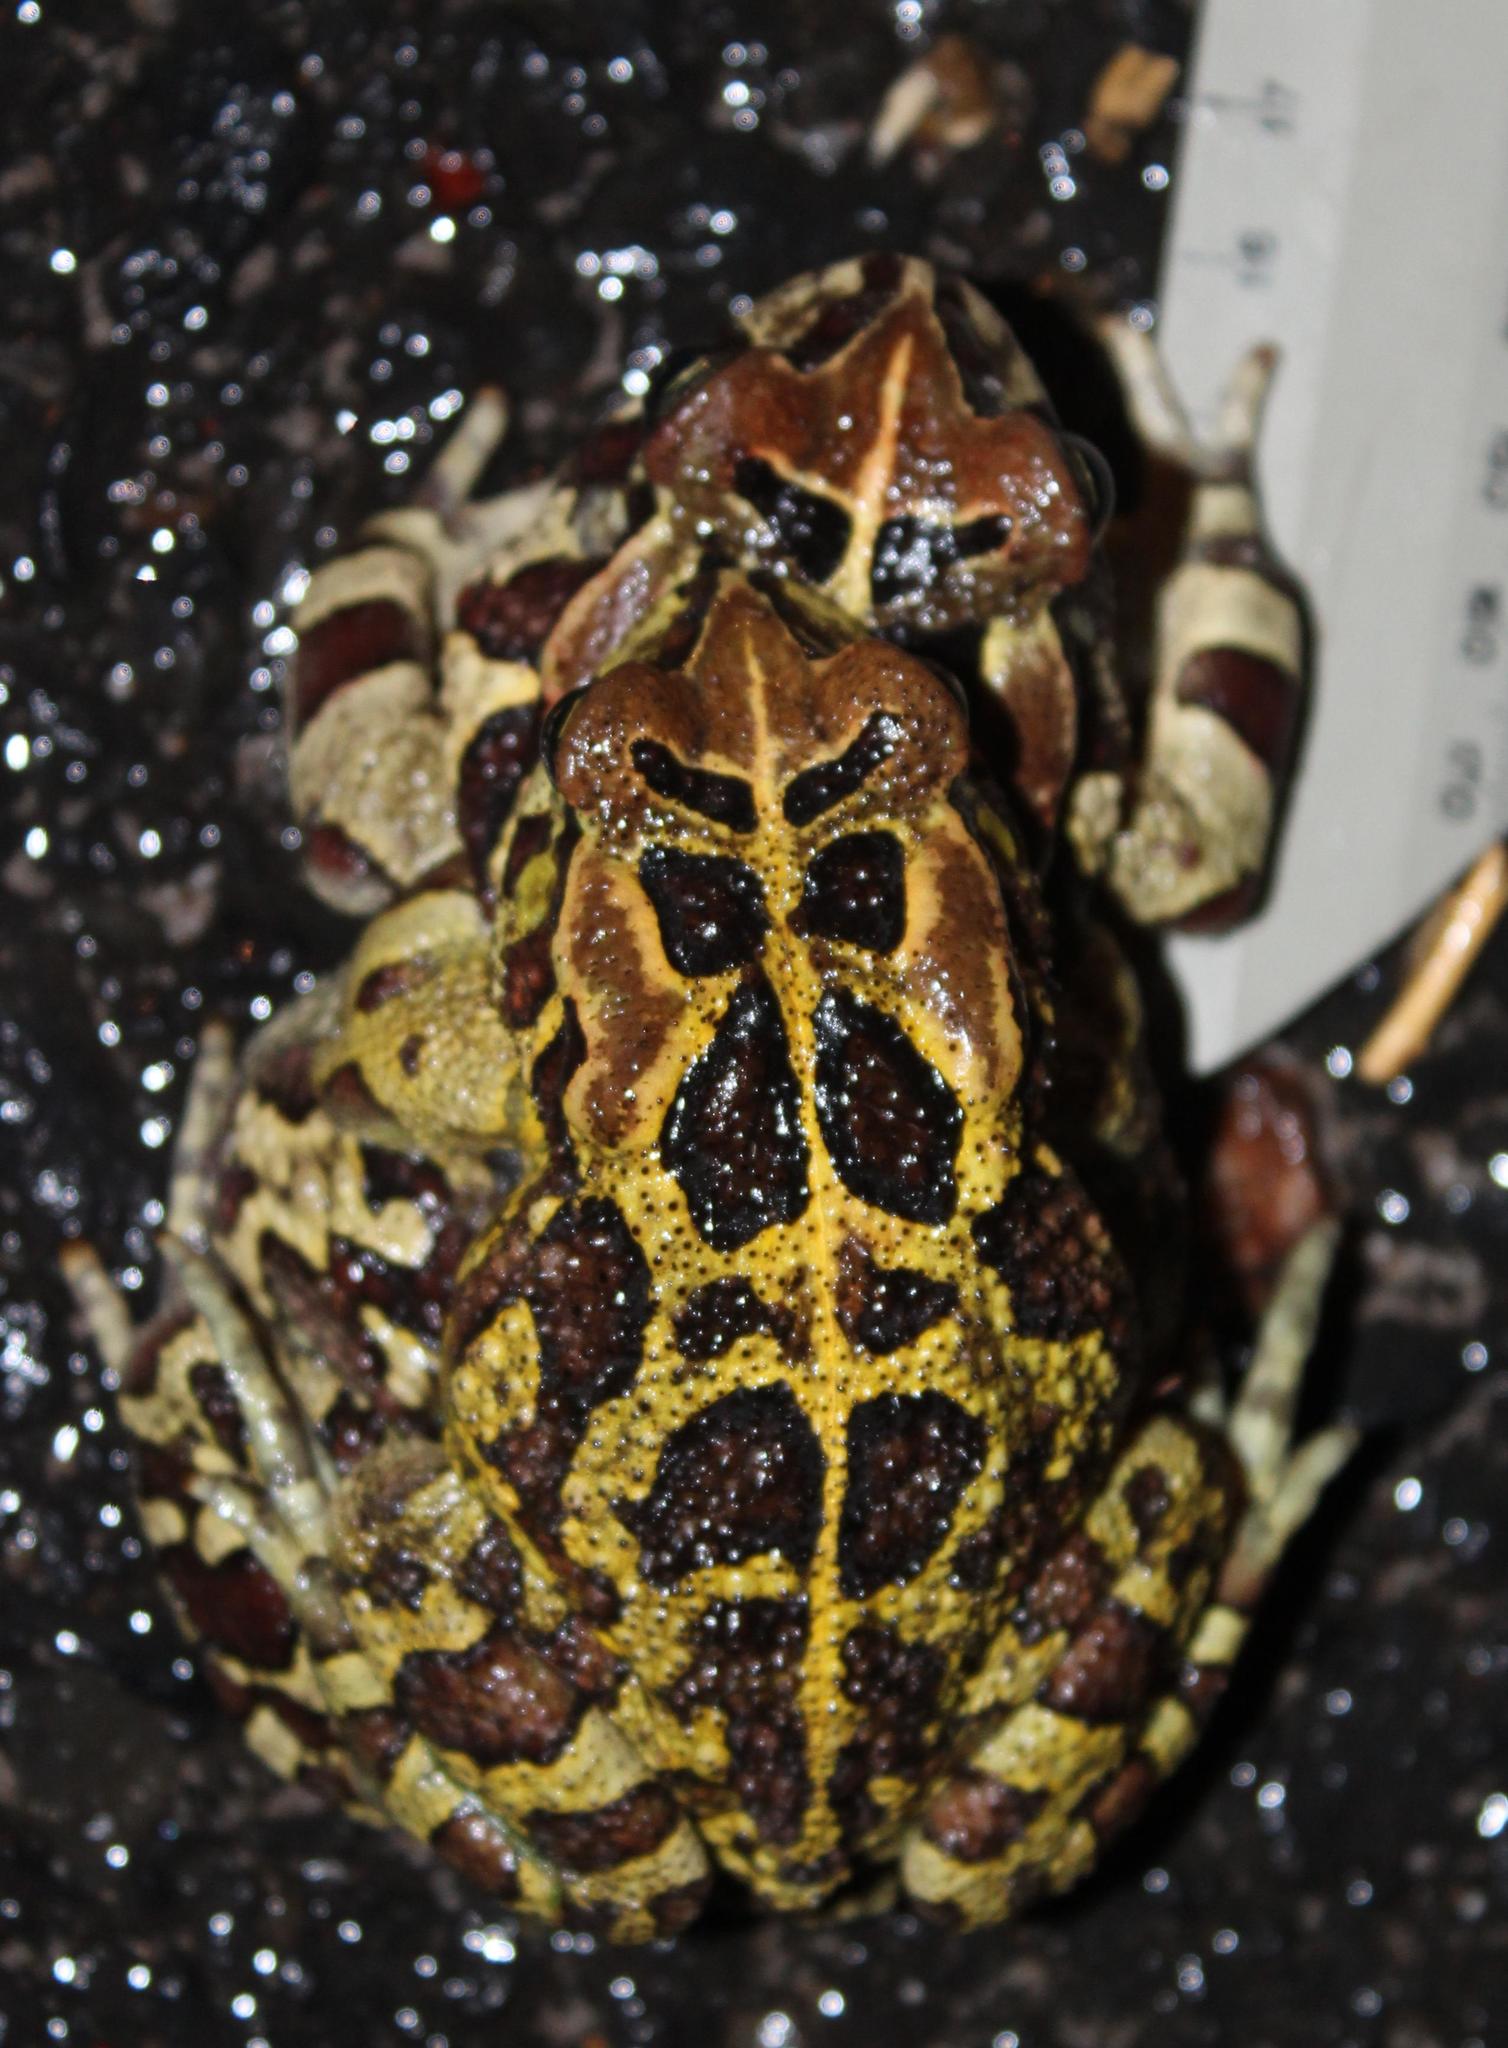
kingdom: Animalia
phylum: Chordata
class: Amphibia
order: Anura
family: Bufonidae
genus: Sclerophrys
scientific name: Sclerophrys pantherina
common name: Panther toad
